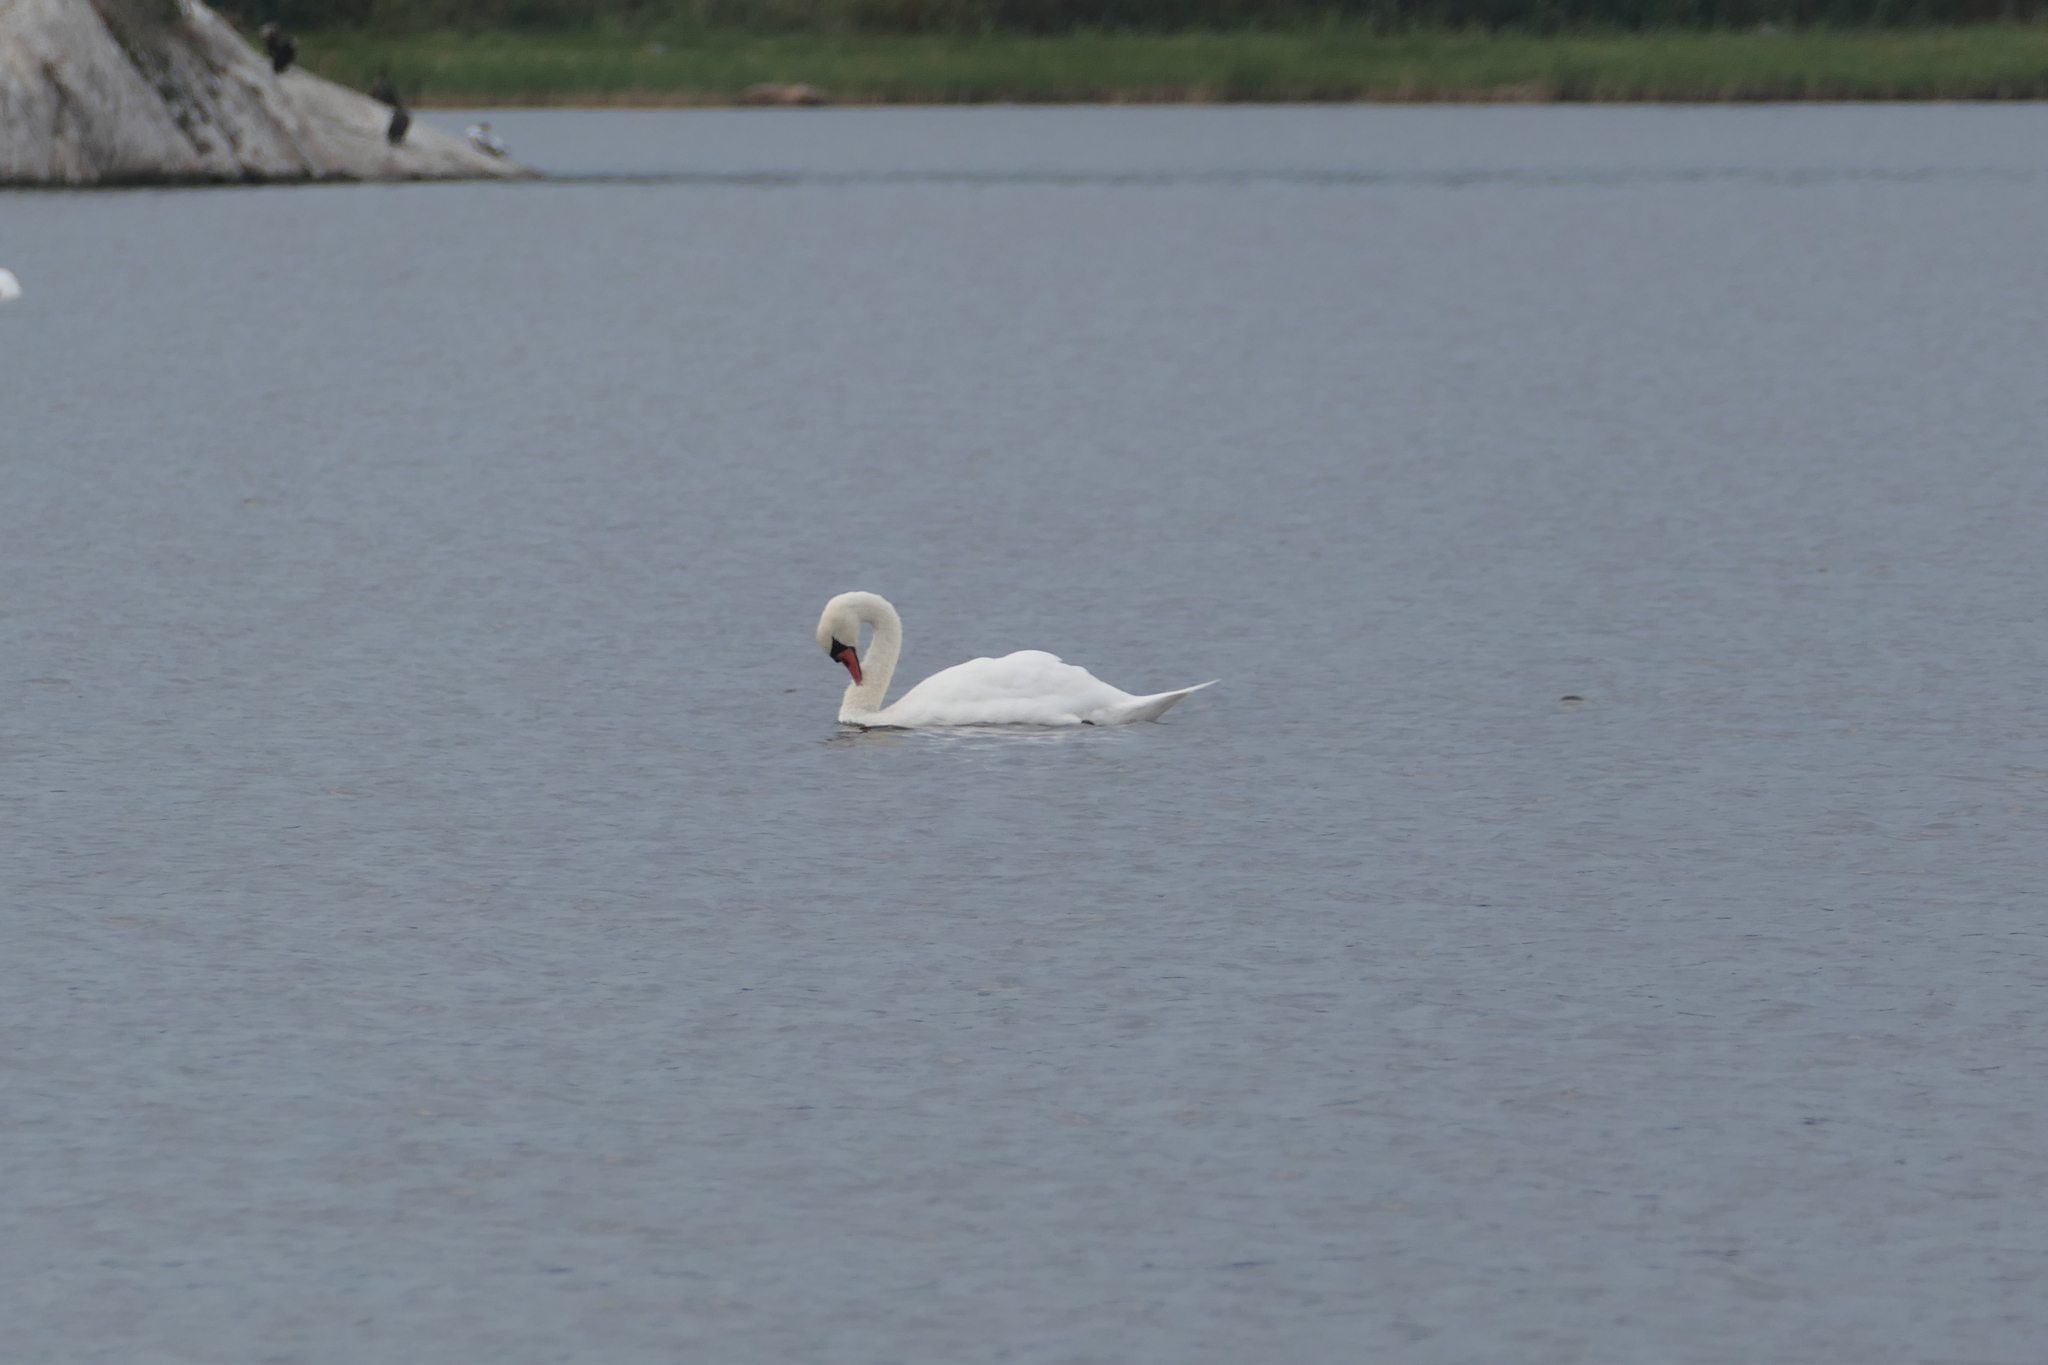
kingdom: Animalia
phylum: Chordata
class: Aves
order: Anseriformes
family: Anatidae
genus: Cygnus
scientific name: Cygnus olor
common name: Mute swan
